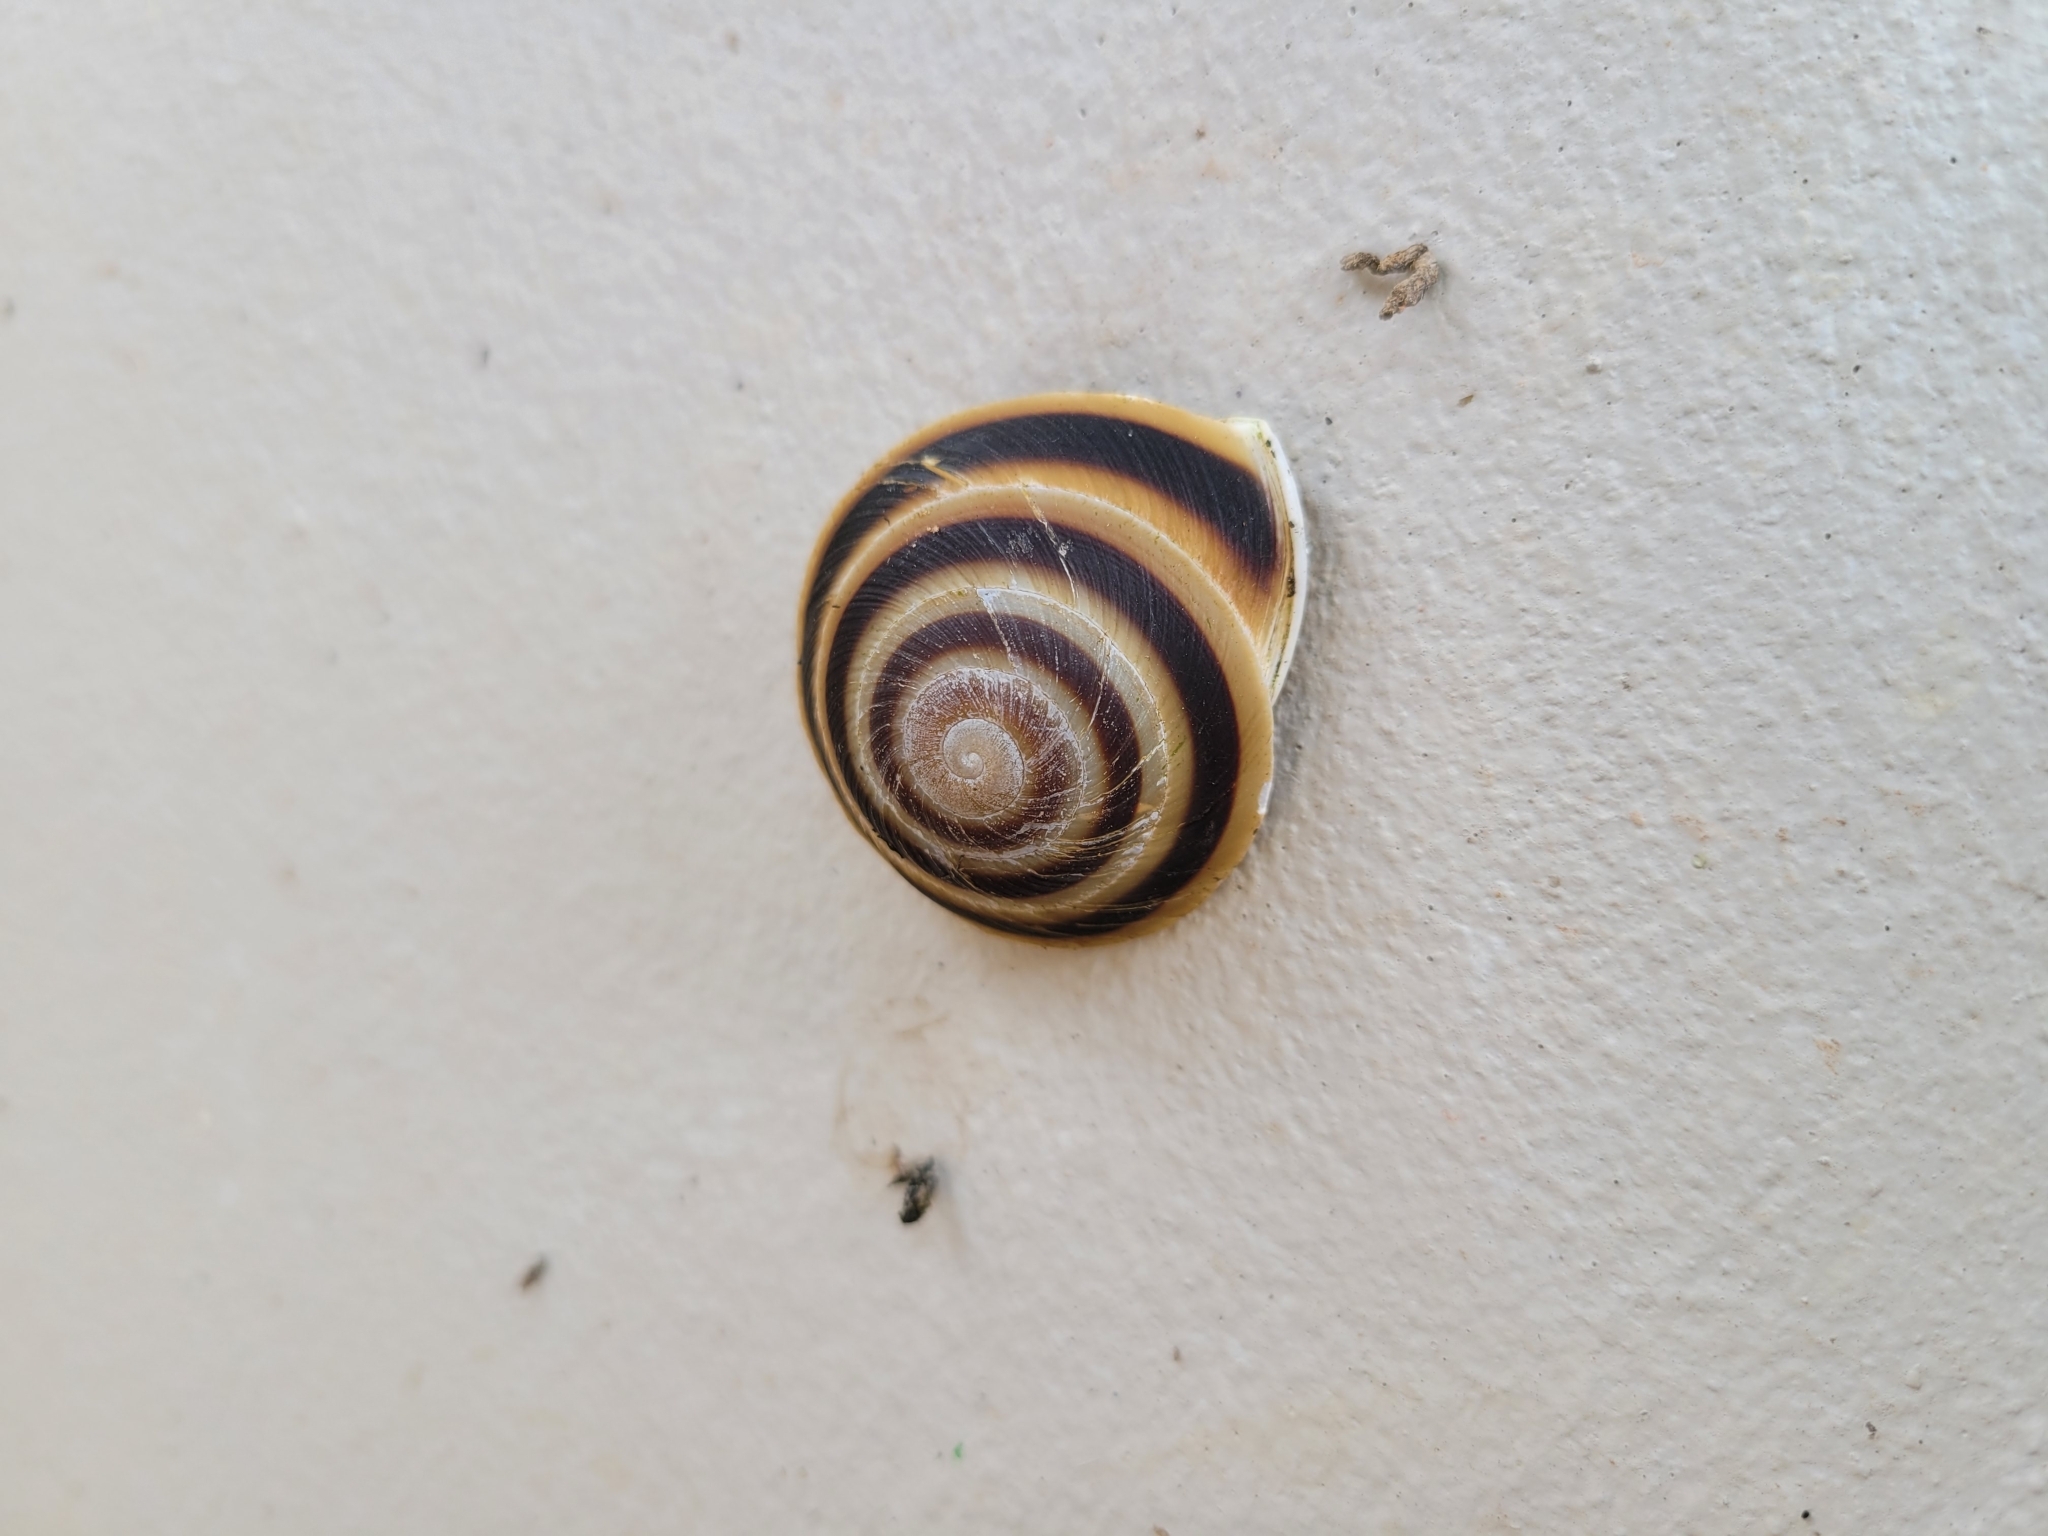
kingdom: Animalia
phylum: Mollusca
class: Gastropoda
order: Stylommatophora
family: Solaropsidae
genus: Caracolus
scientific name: Caracolus marginella
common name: Banded caracol
